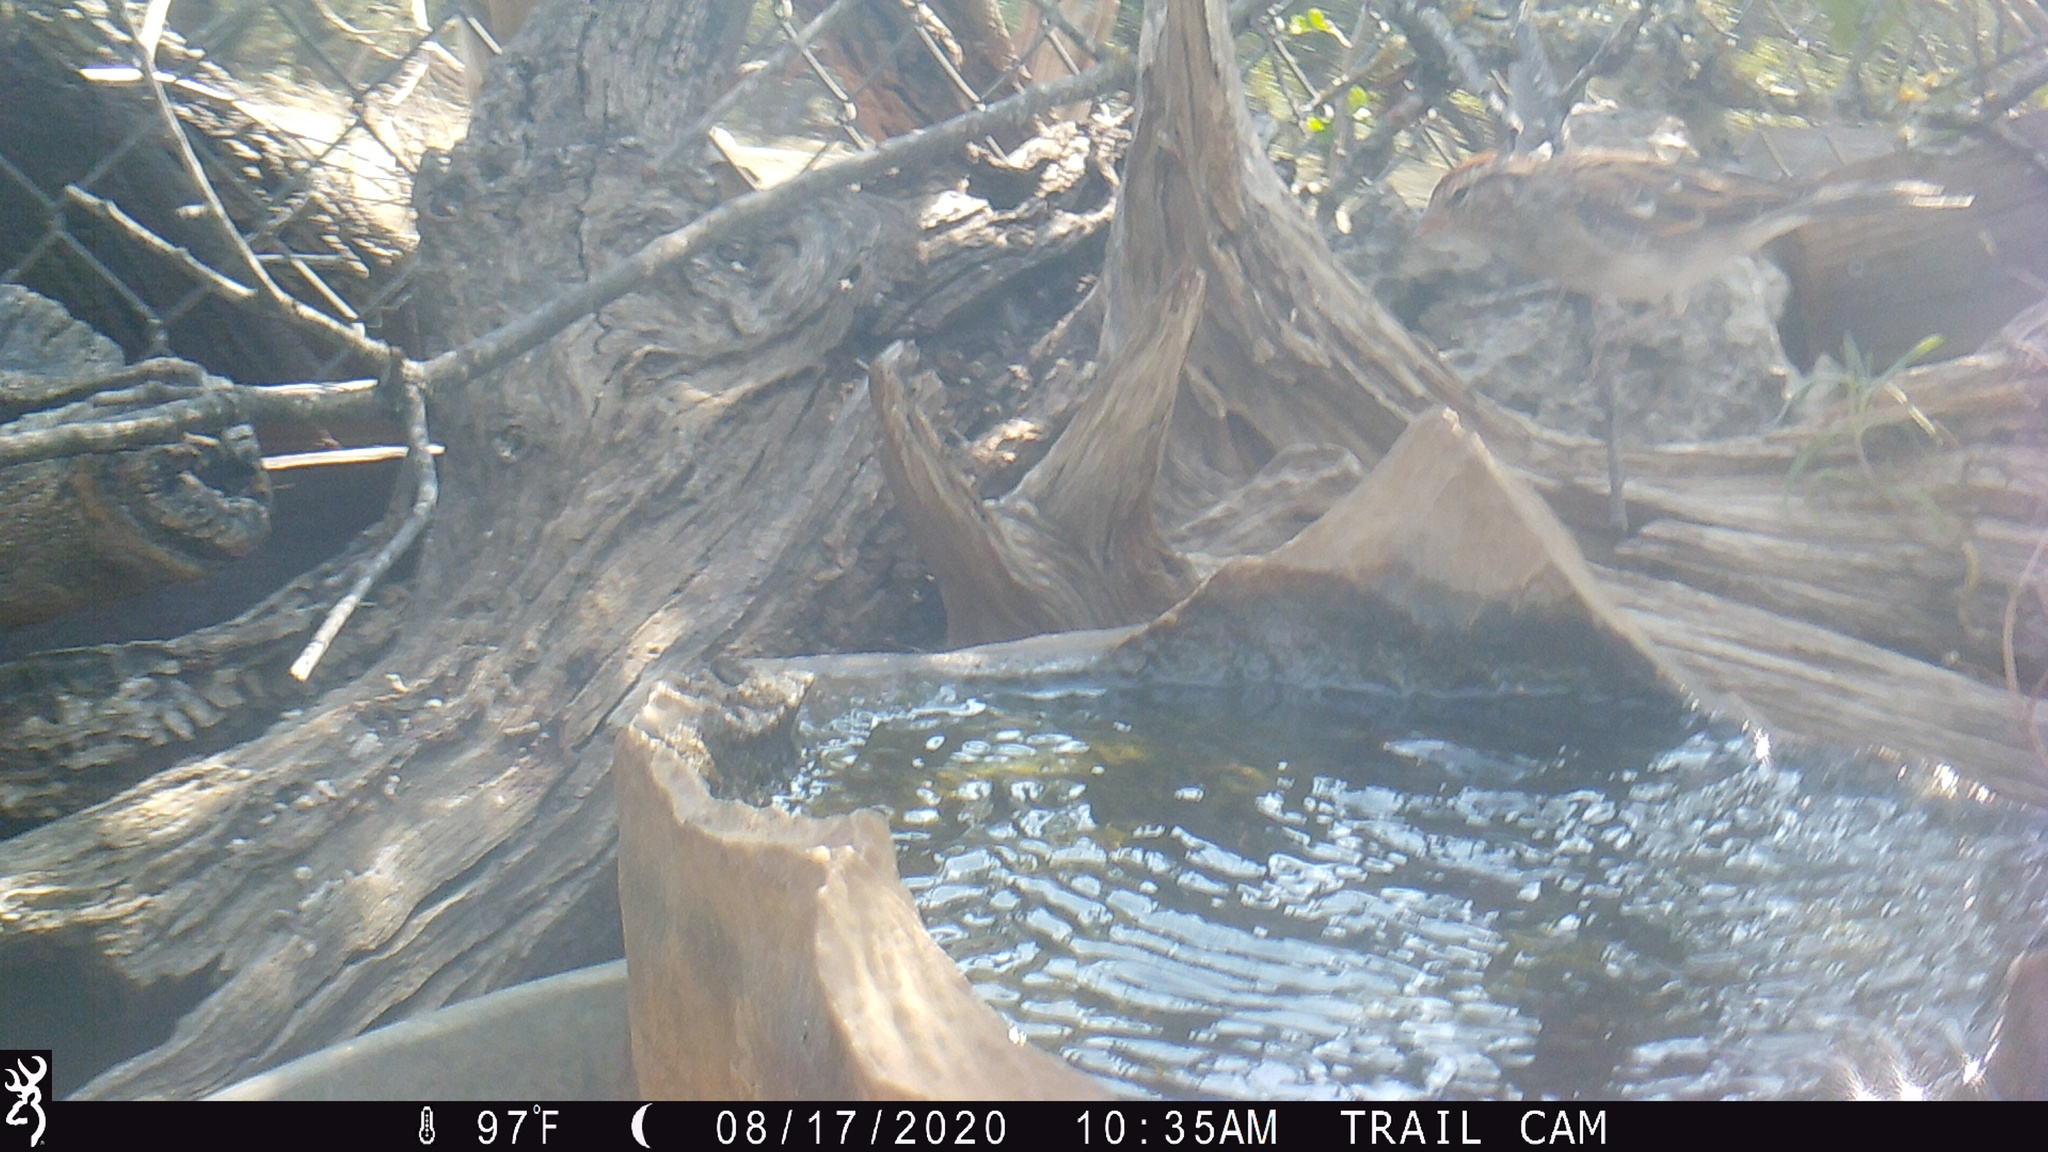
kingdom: Animalia
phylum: Chordata
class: Aves
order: Passeriformes
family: Passerellidae
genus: Spizella
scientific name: Spizella passerina
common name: Chipping sparrow
